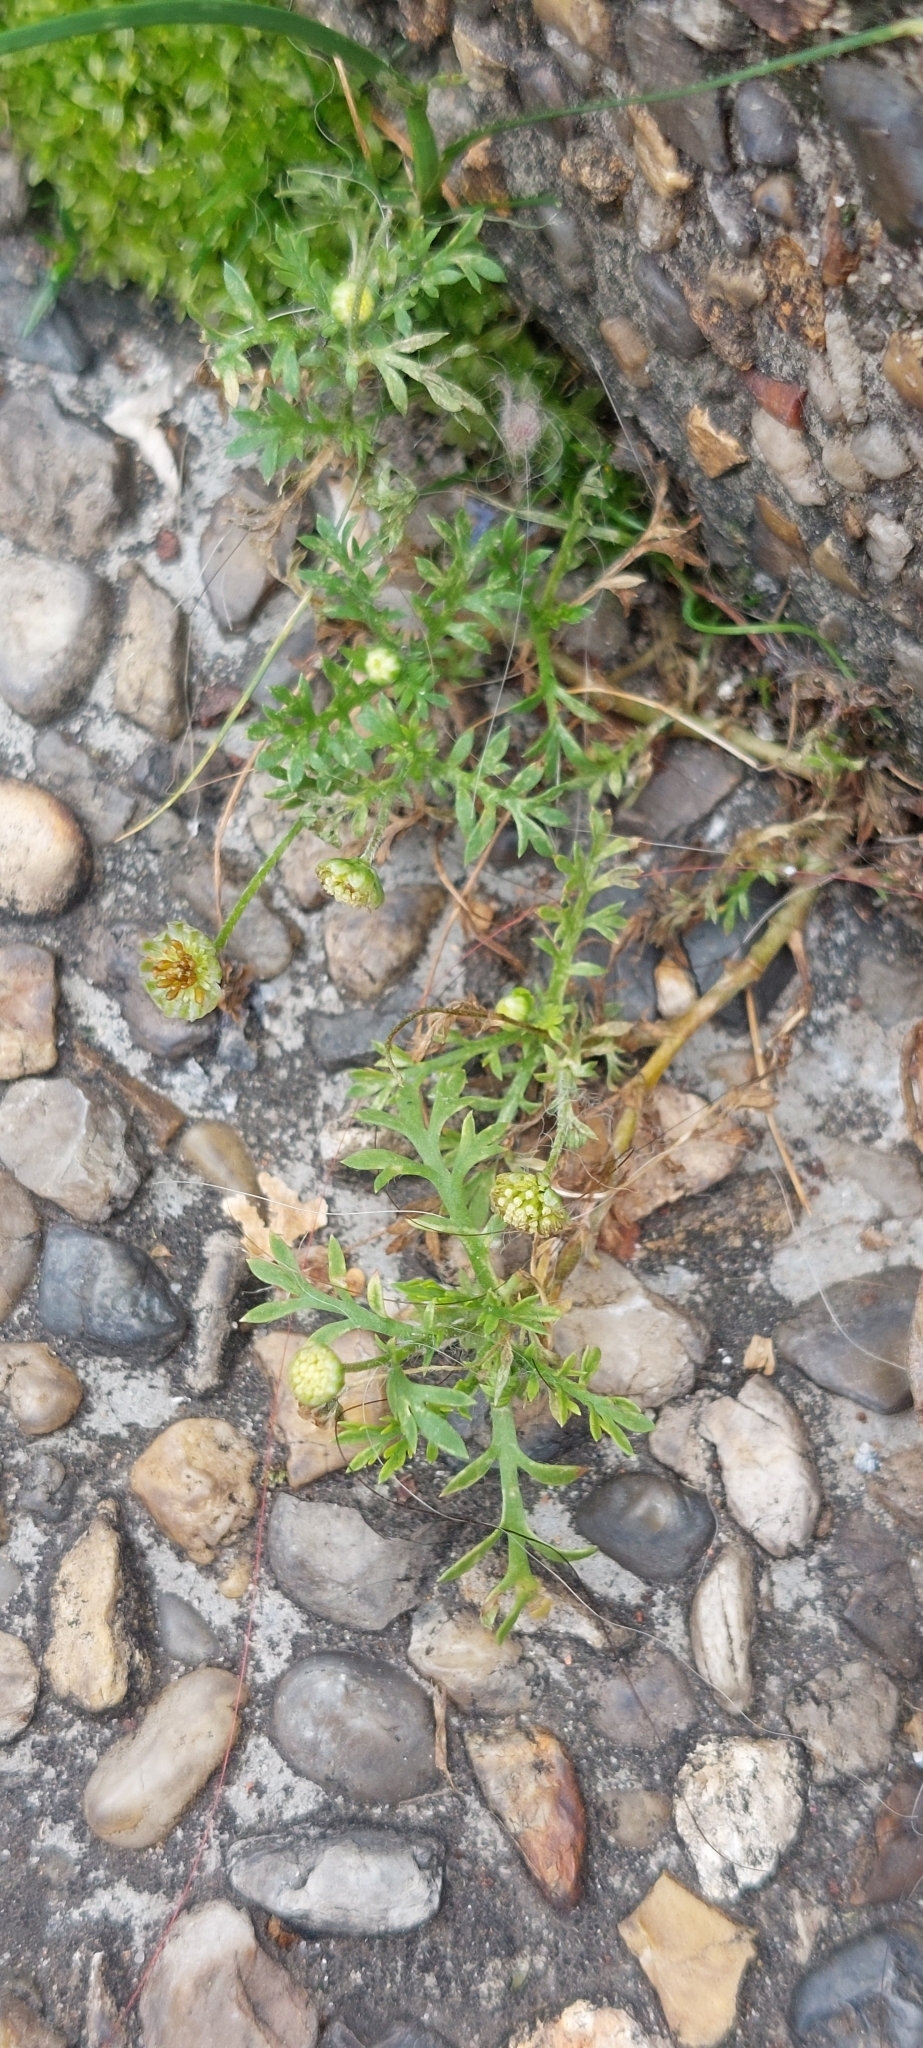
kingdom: Plantae
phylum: Tracheophyta
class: Magnoliopsida
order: Asterales
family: Asteraceae
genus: Cotula
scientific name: Cotula australis
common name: Australian waterbuttons
